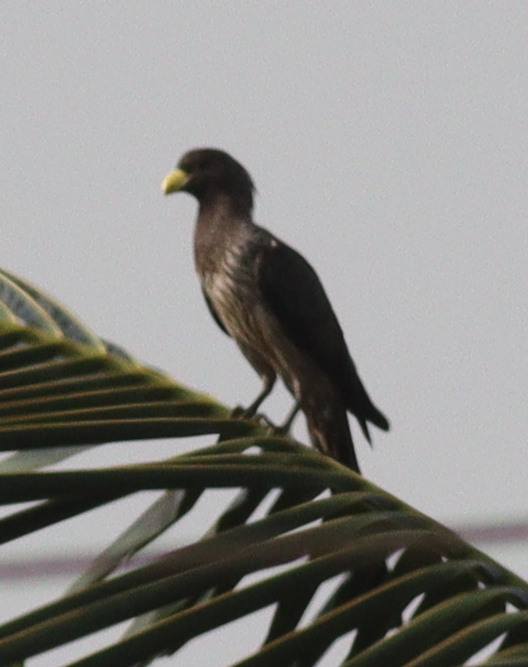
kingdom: Animalia
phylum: Chordata
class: Aves
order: Musophagiformes
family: Musophagidae
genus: Crinifer
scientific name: Crinifer piscator
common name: Western plantain-eater
